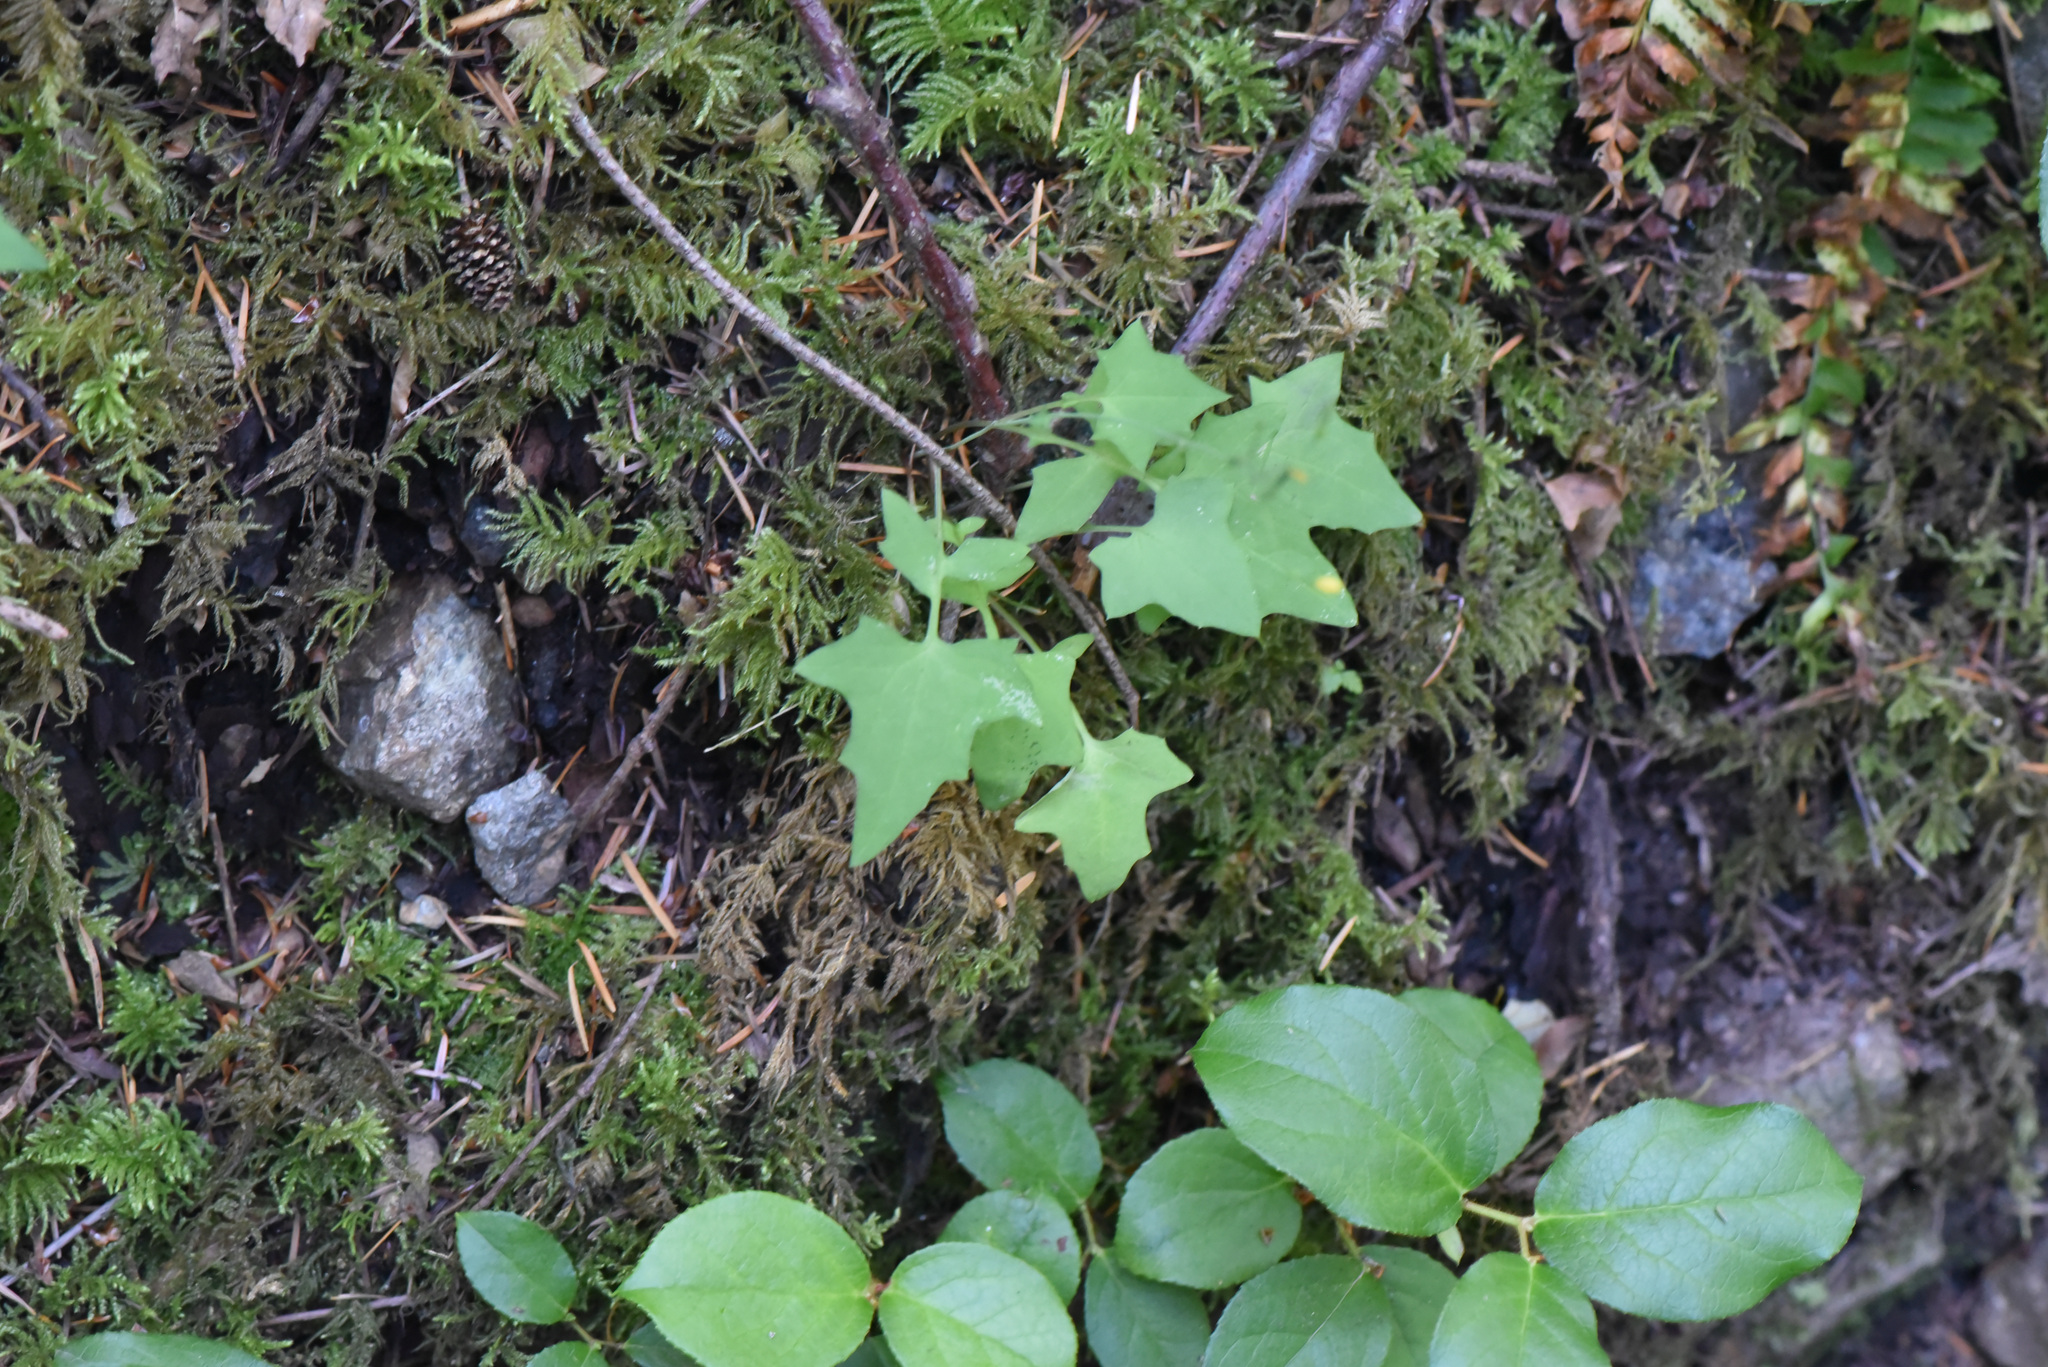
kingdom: Plantae
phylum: Tracheophyta
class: Magnoliopsida
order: Asterales
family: Asteraceae
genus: Mycelis
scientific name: Mycelis muralis
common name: Wall lettuce
